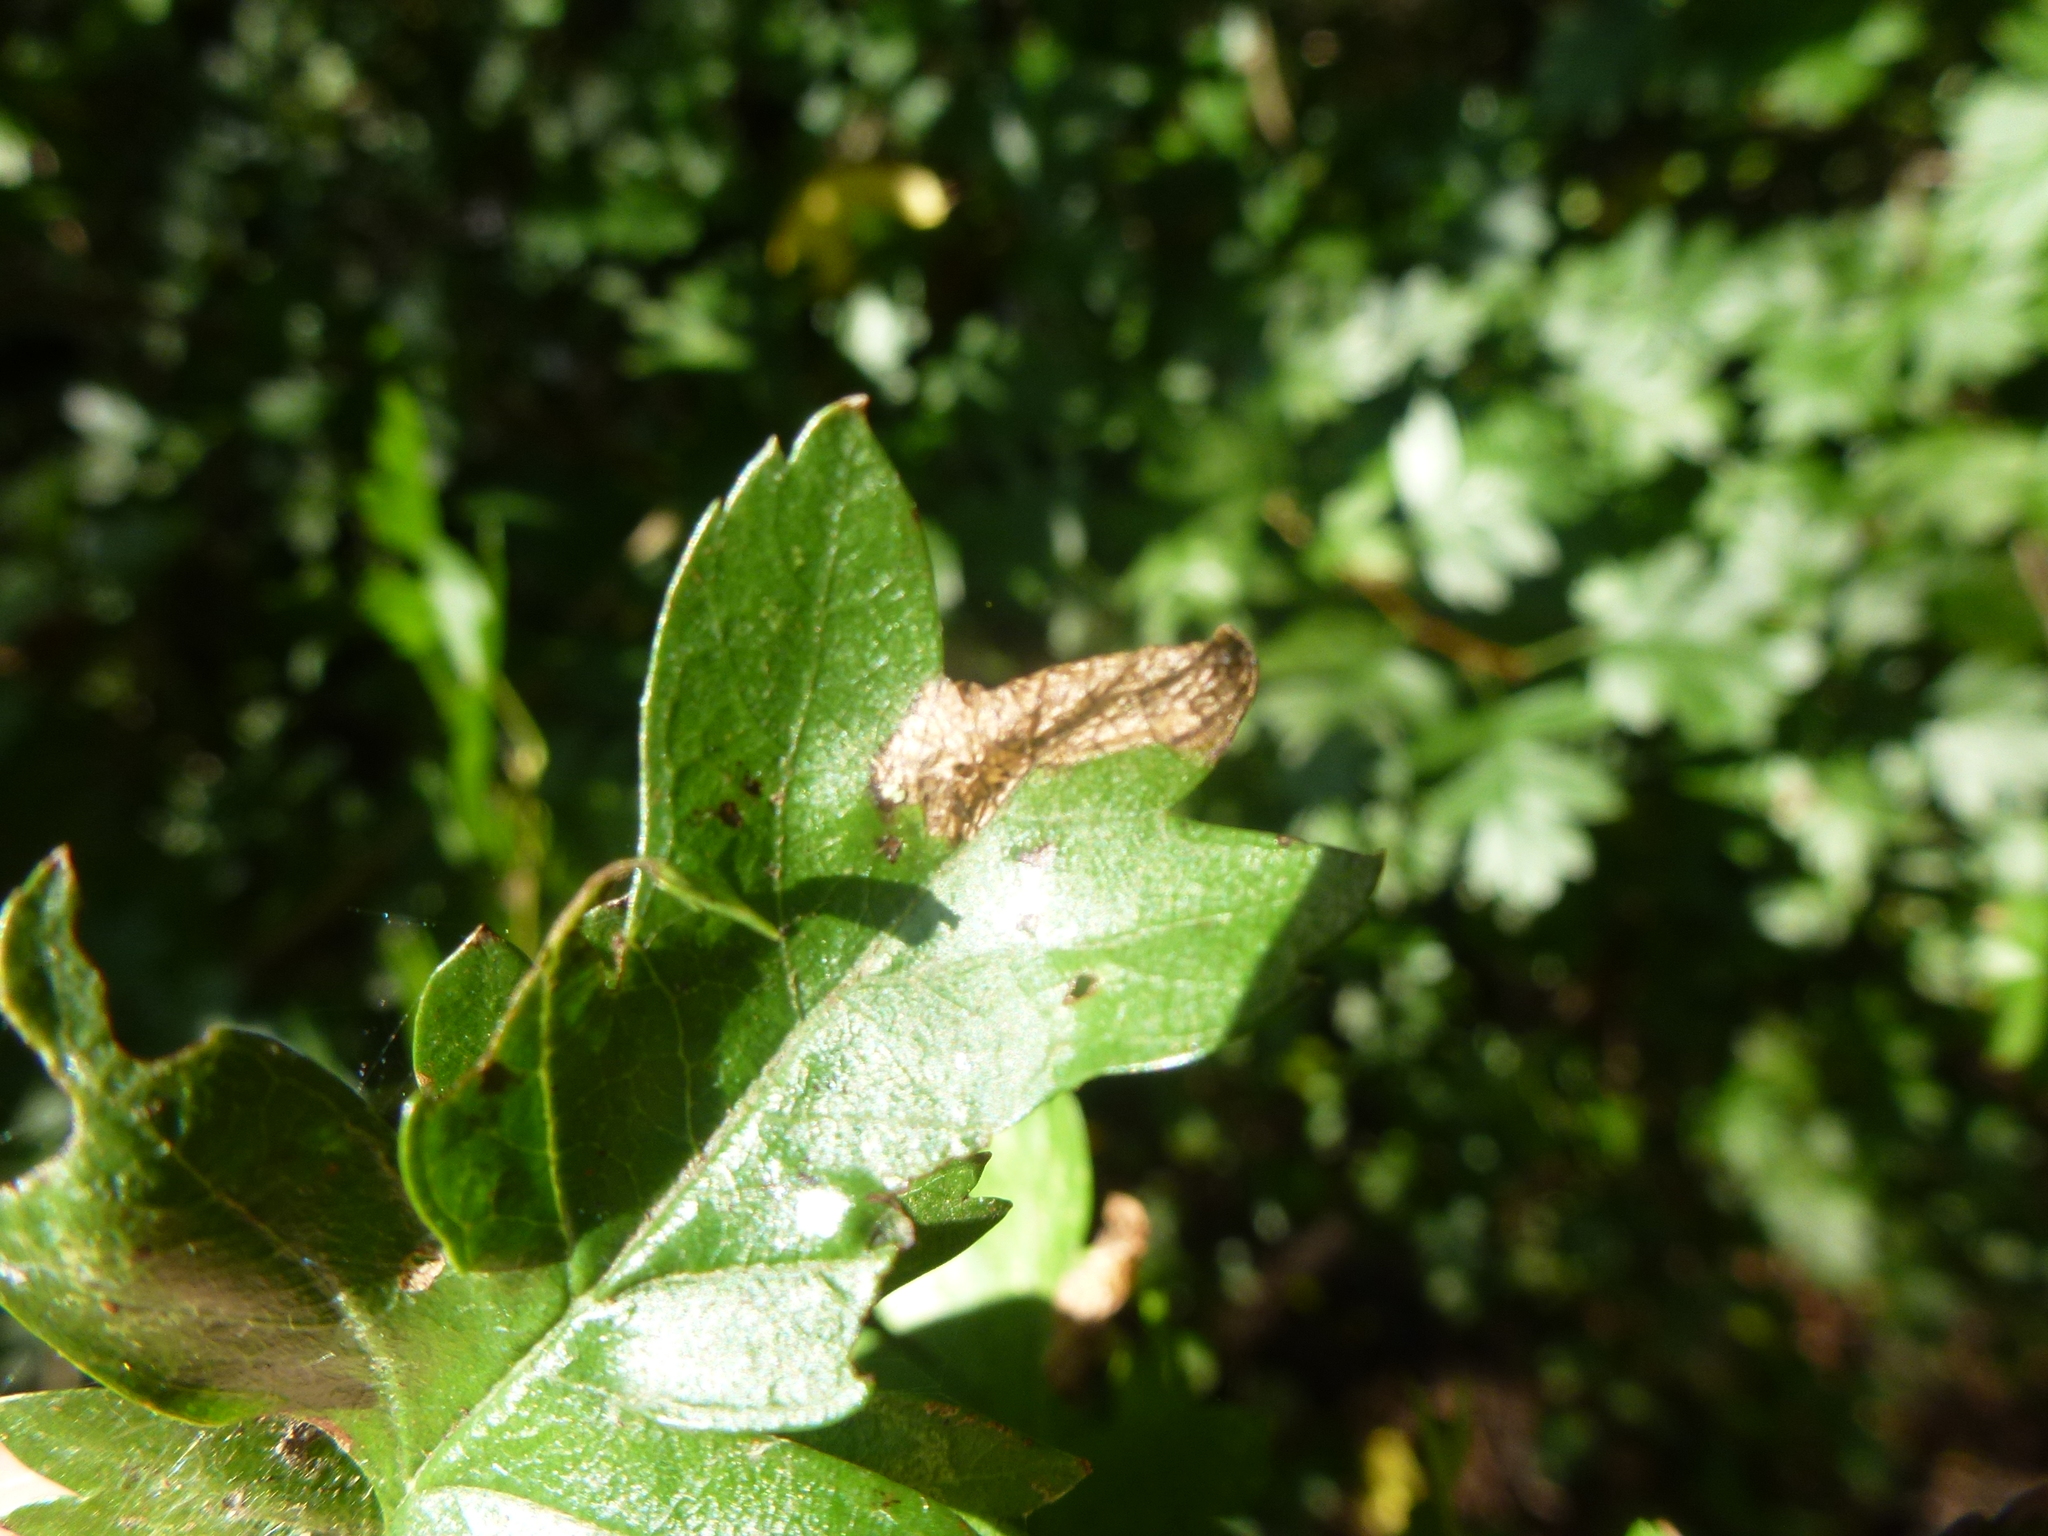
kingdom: Animalia
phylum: Arthropoda
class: Insecta
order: Lepidoptera
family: Gracillariidae
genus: Parornix
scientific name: Parornix anglicella
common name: Hawthorn slender
